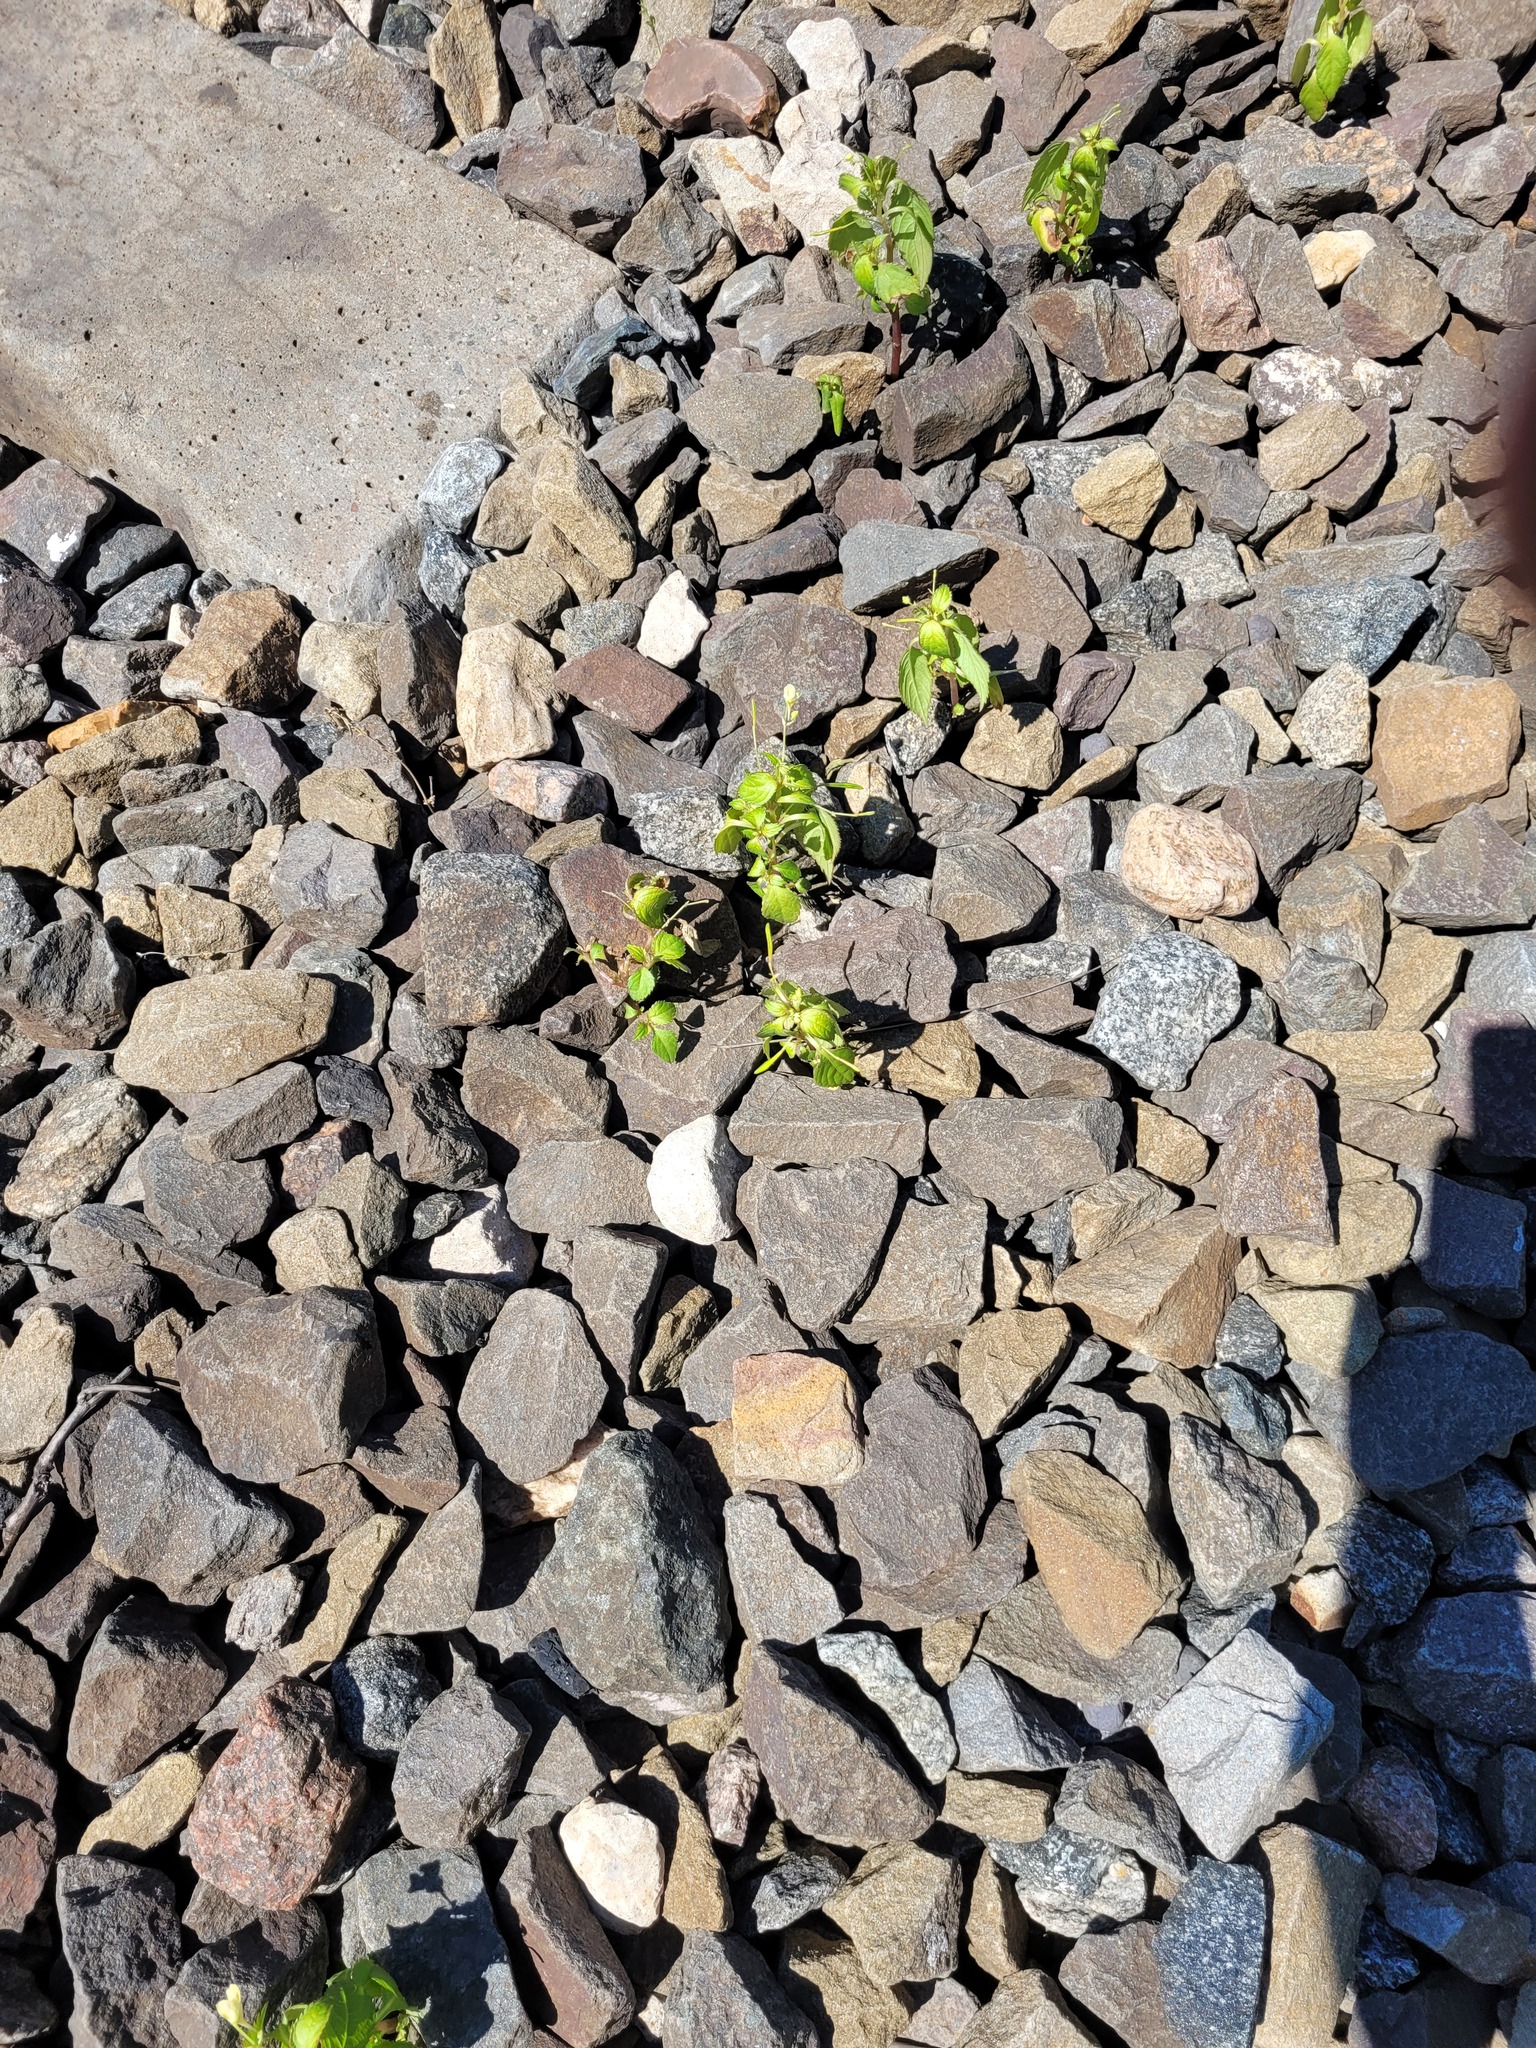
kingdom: Plantae
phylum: Tracheophyta
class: Magnoliopsida
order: Ericales
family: Balsaminaceae
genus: Impatiens
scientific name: Impatiens parviflora
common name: Small balsam
